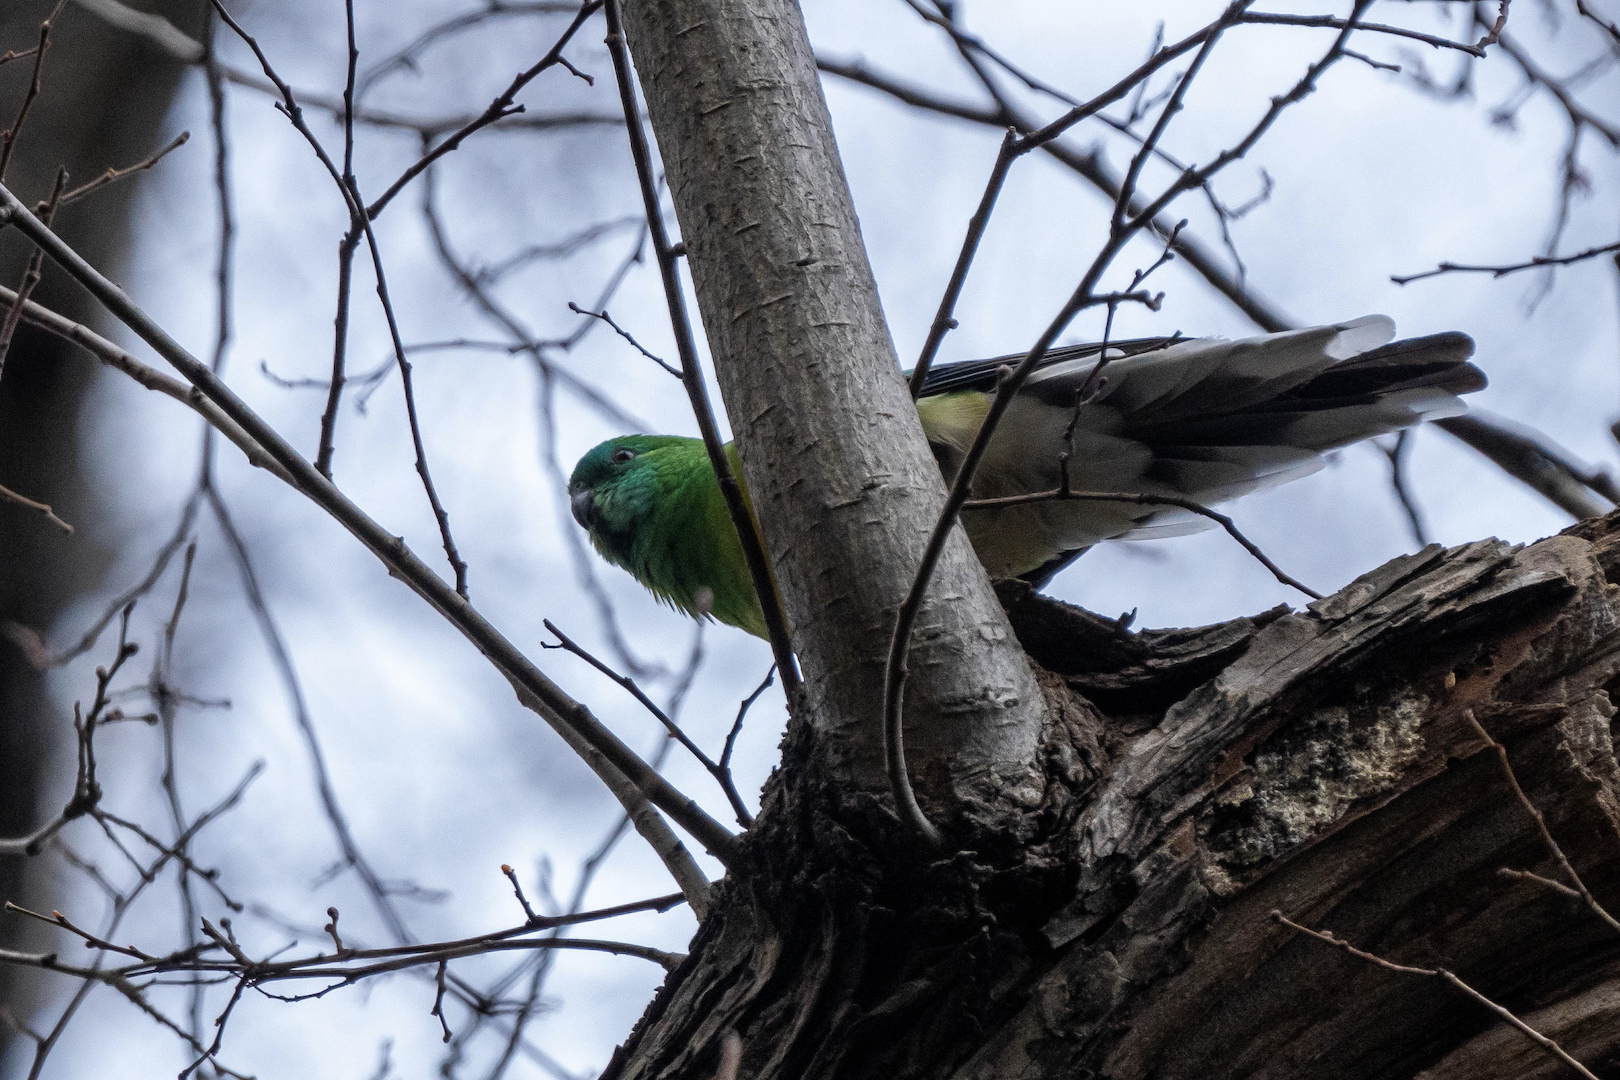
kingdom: Animalia
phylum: Chordata
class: Aves
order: Psittaciformes
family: Psittacidae
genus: Psephotus
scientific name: Psephotus haematonotus
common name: Red-rumped parrot
